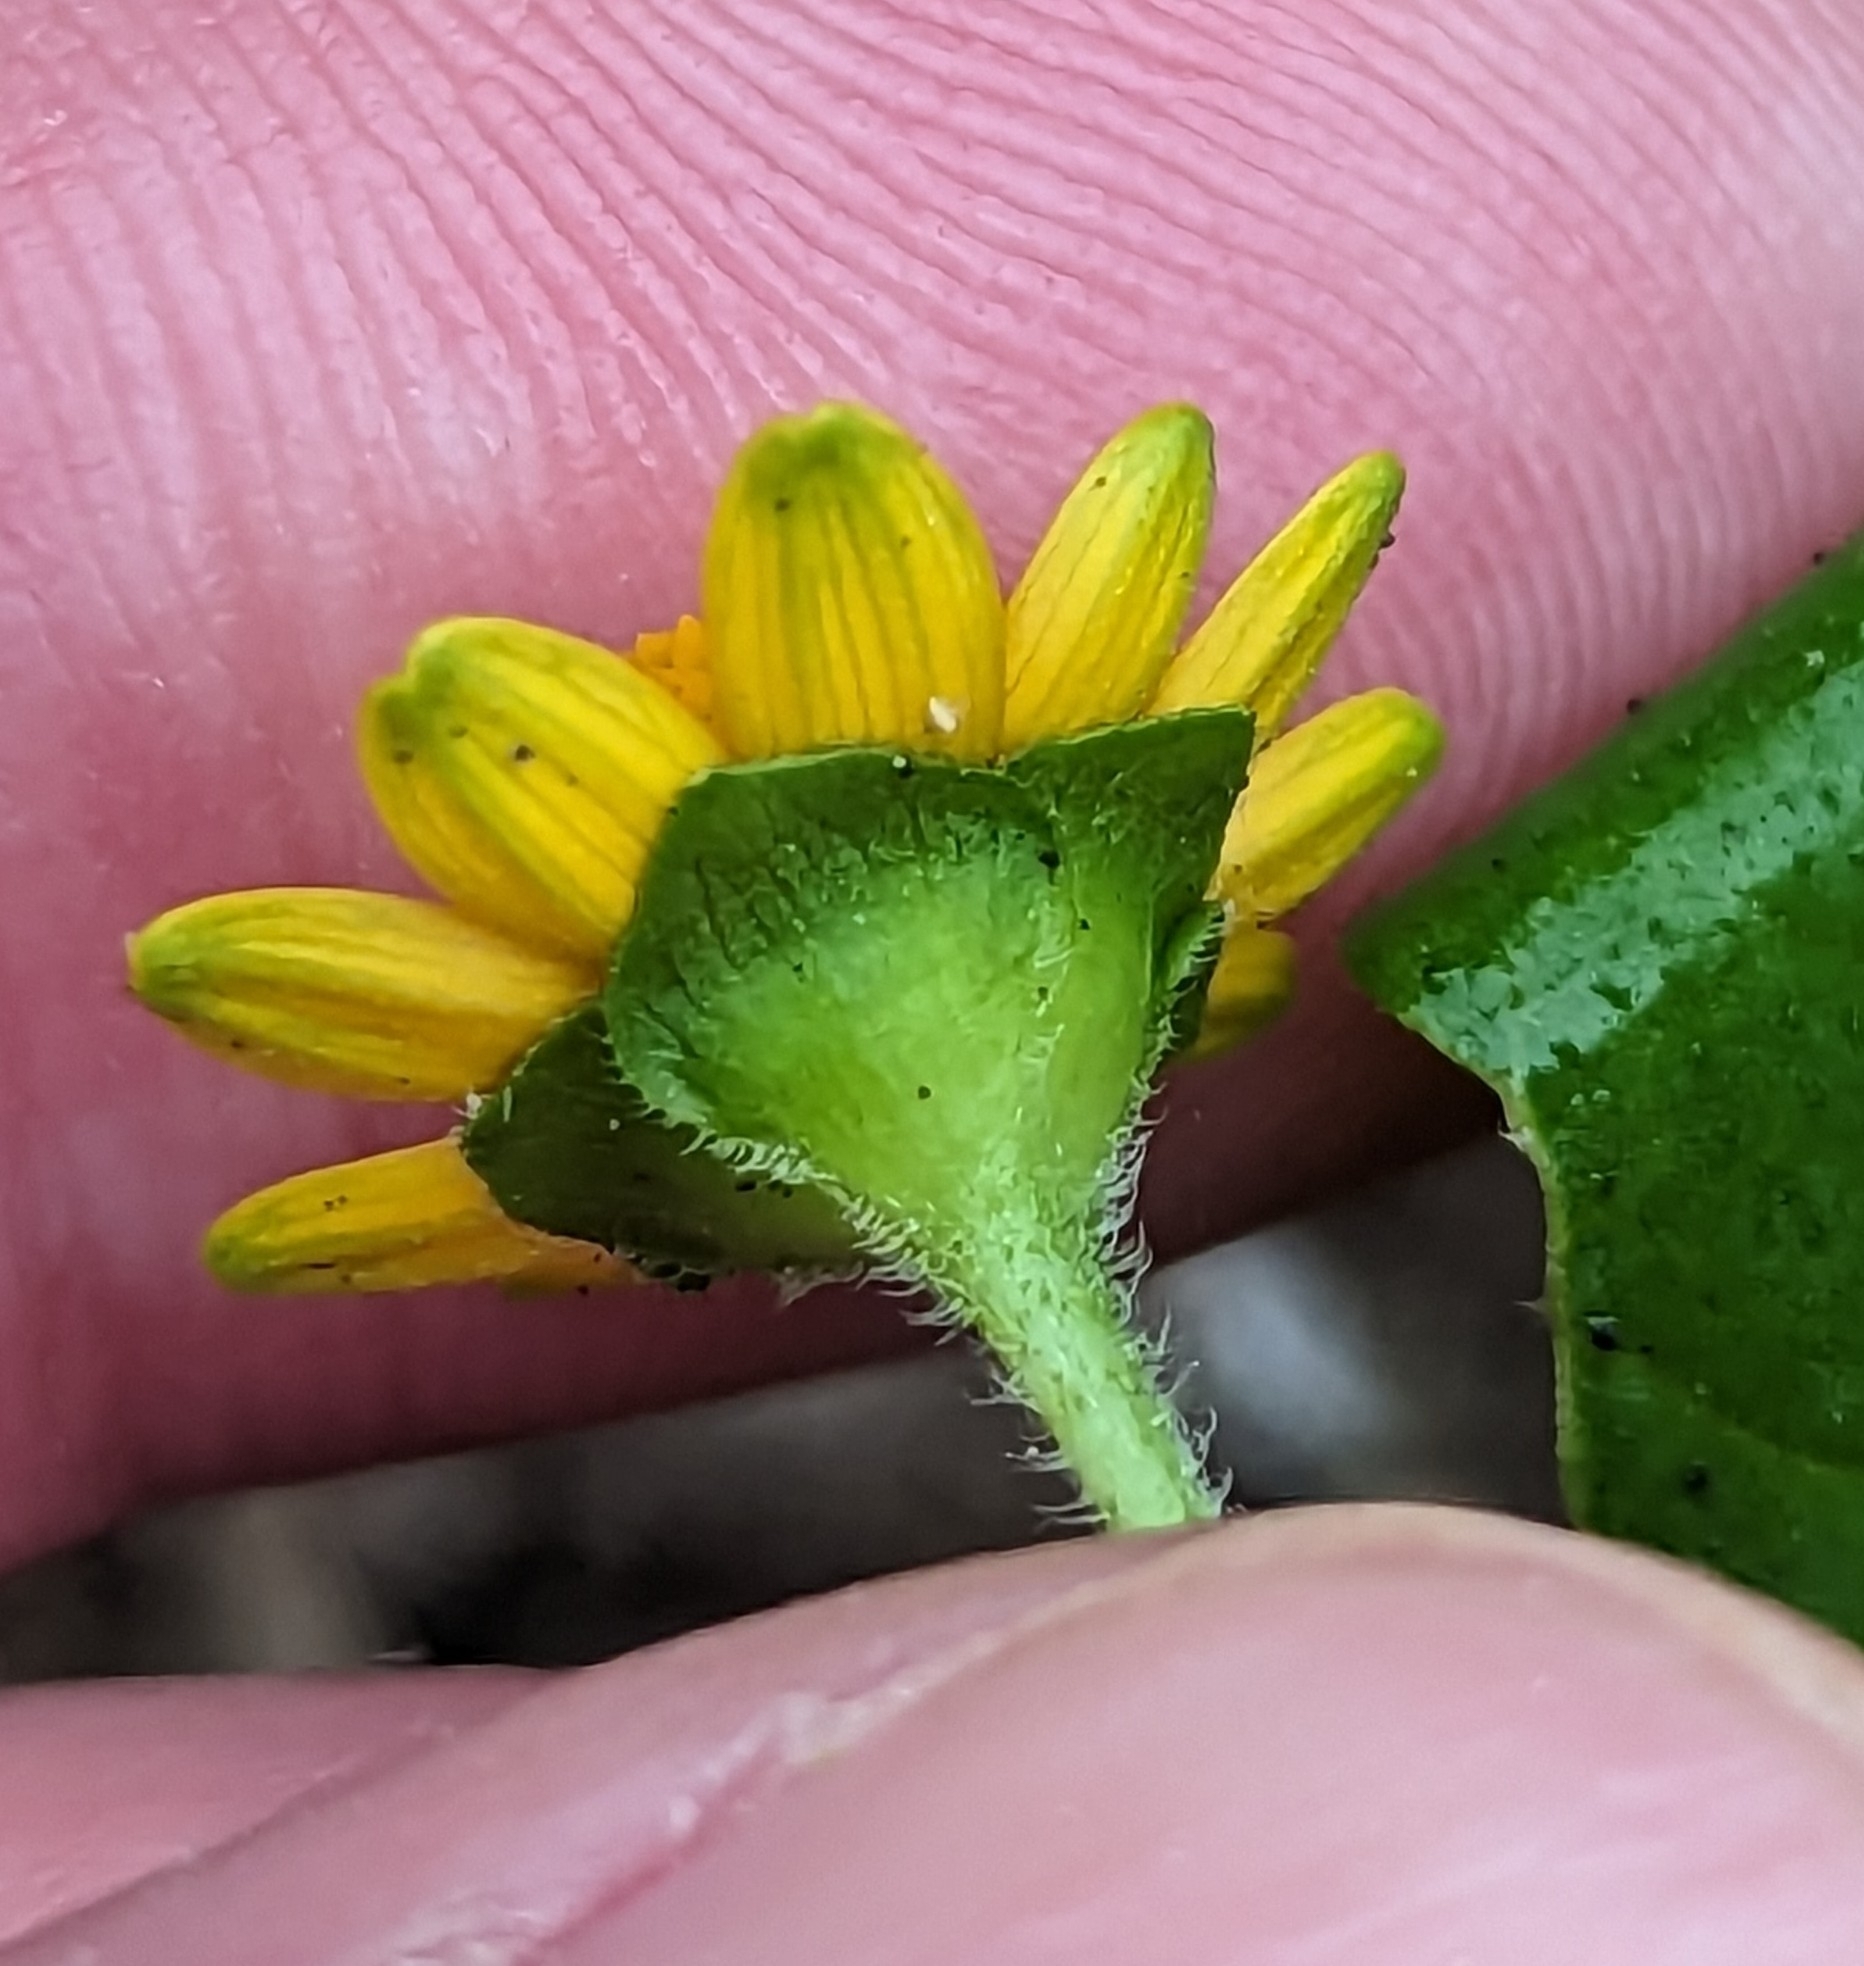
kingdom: Plantae
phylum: Tracheophyta
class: Magnoliopsida
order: Asterales
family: Asteraceae
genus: Melampodium
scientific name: Melampodium divaricatum
